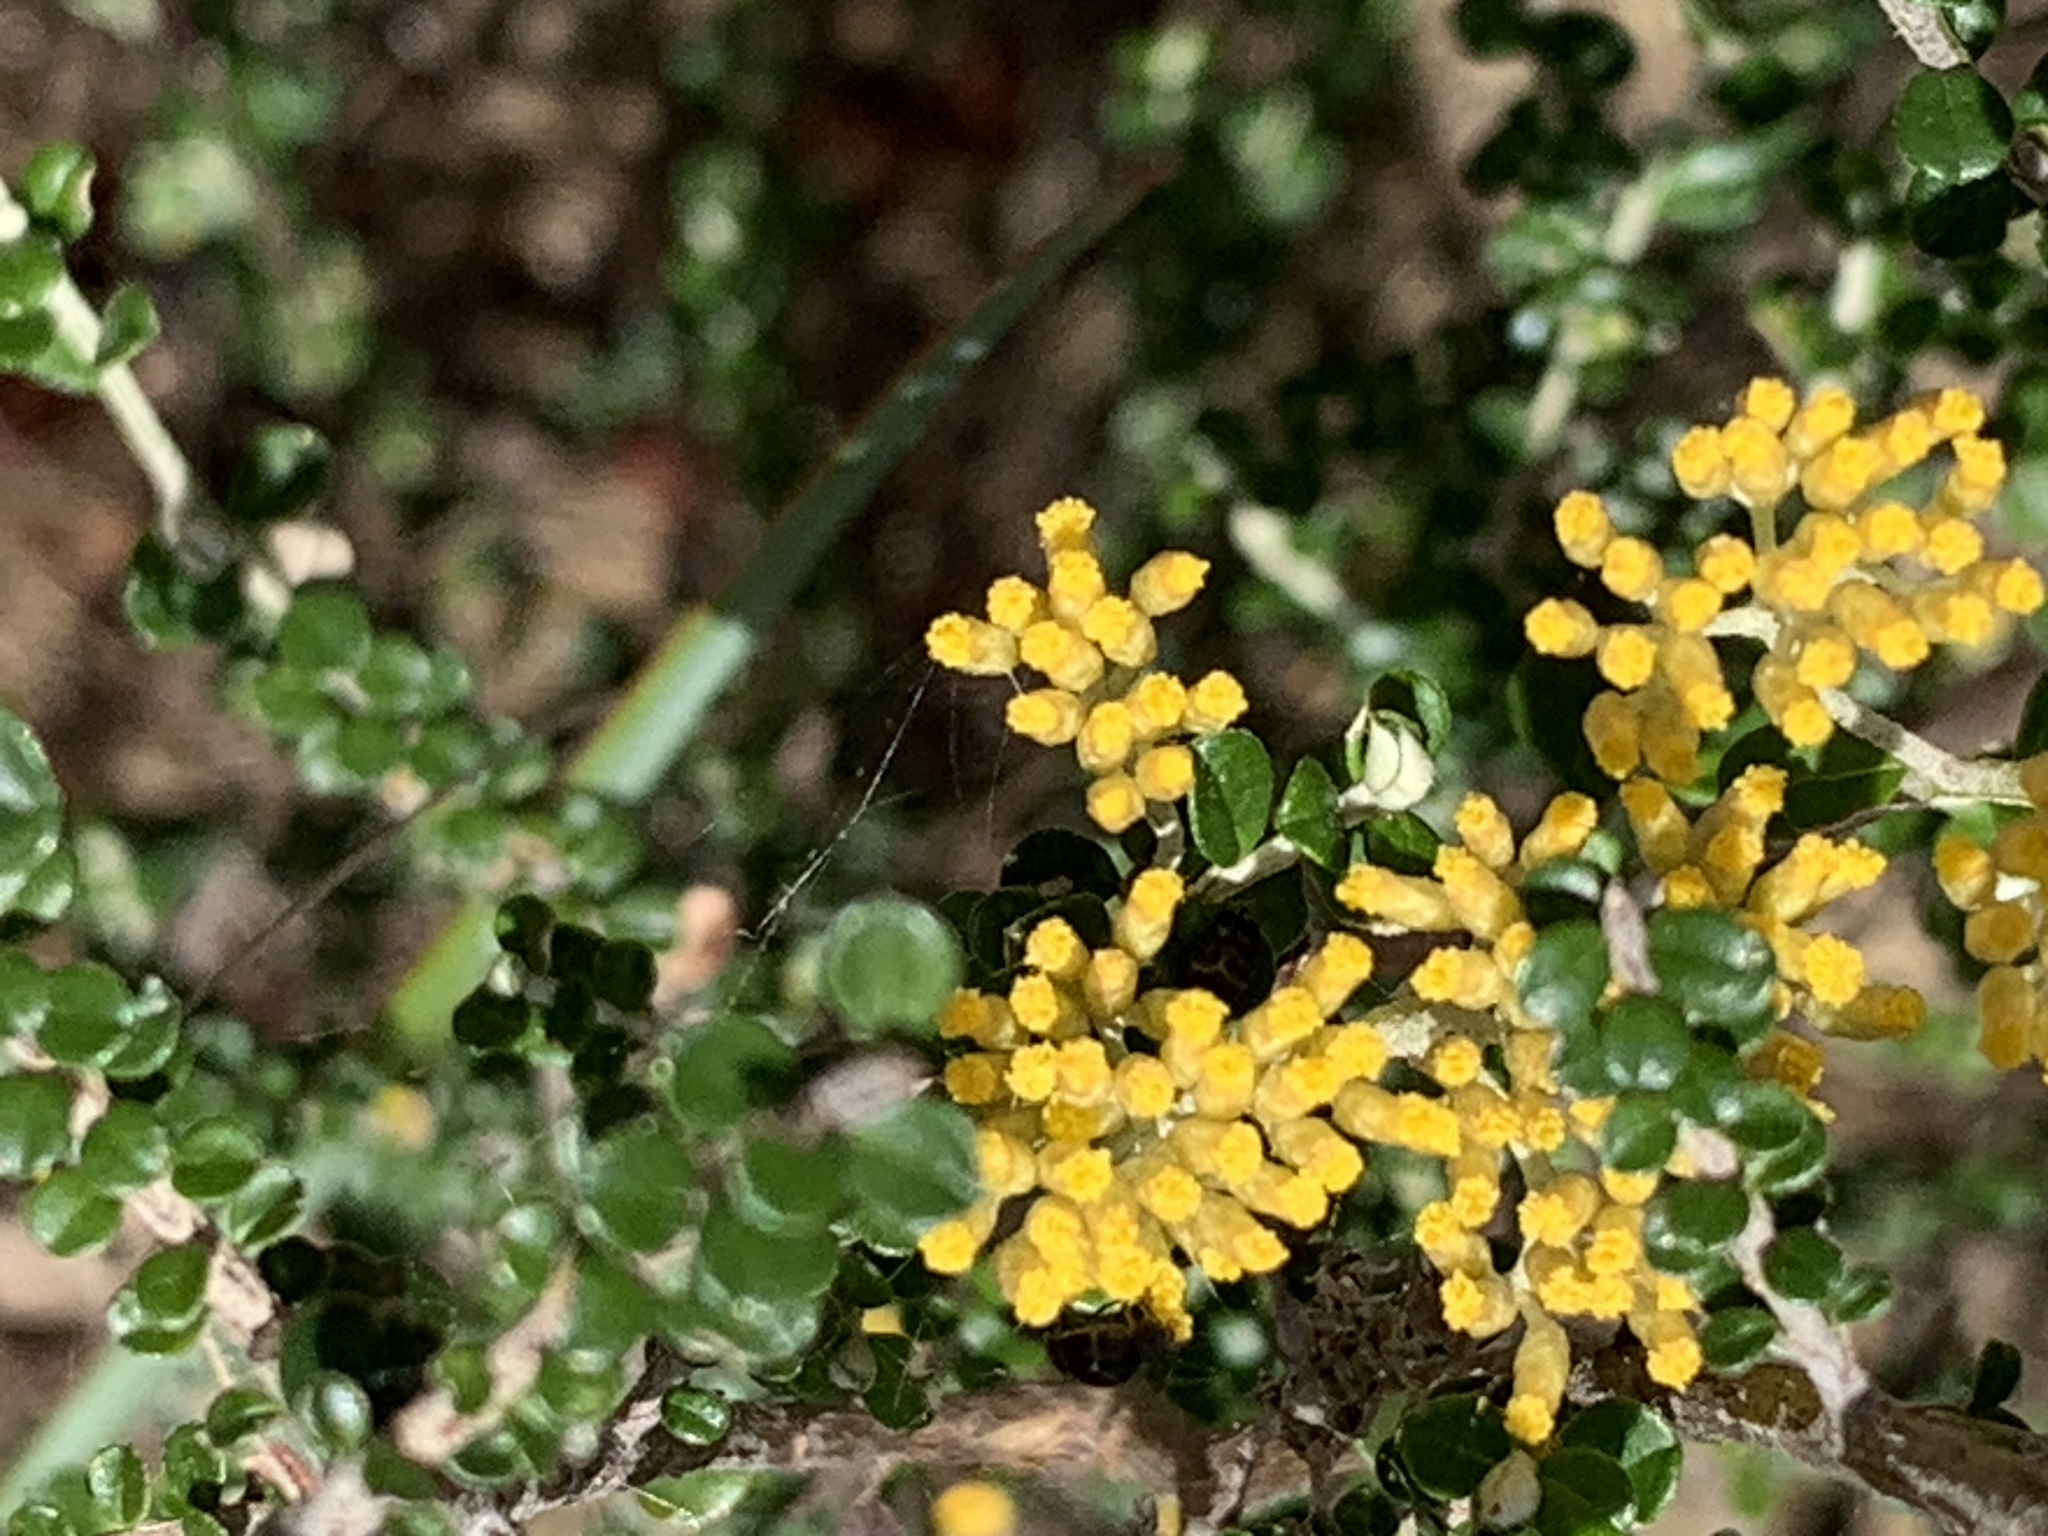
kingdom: Plantae
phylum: Tracheophyta
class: Magnoliopsida
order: Asterales
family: Asteraceae
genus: Ozothamnus
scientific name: Ozothamnus obcordatus
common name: Grey everlasting
